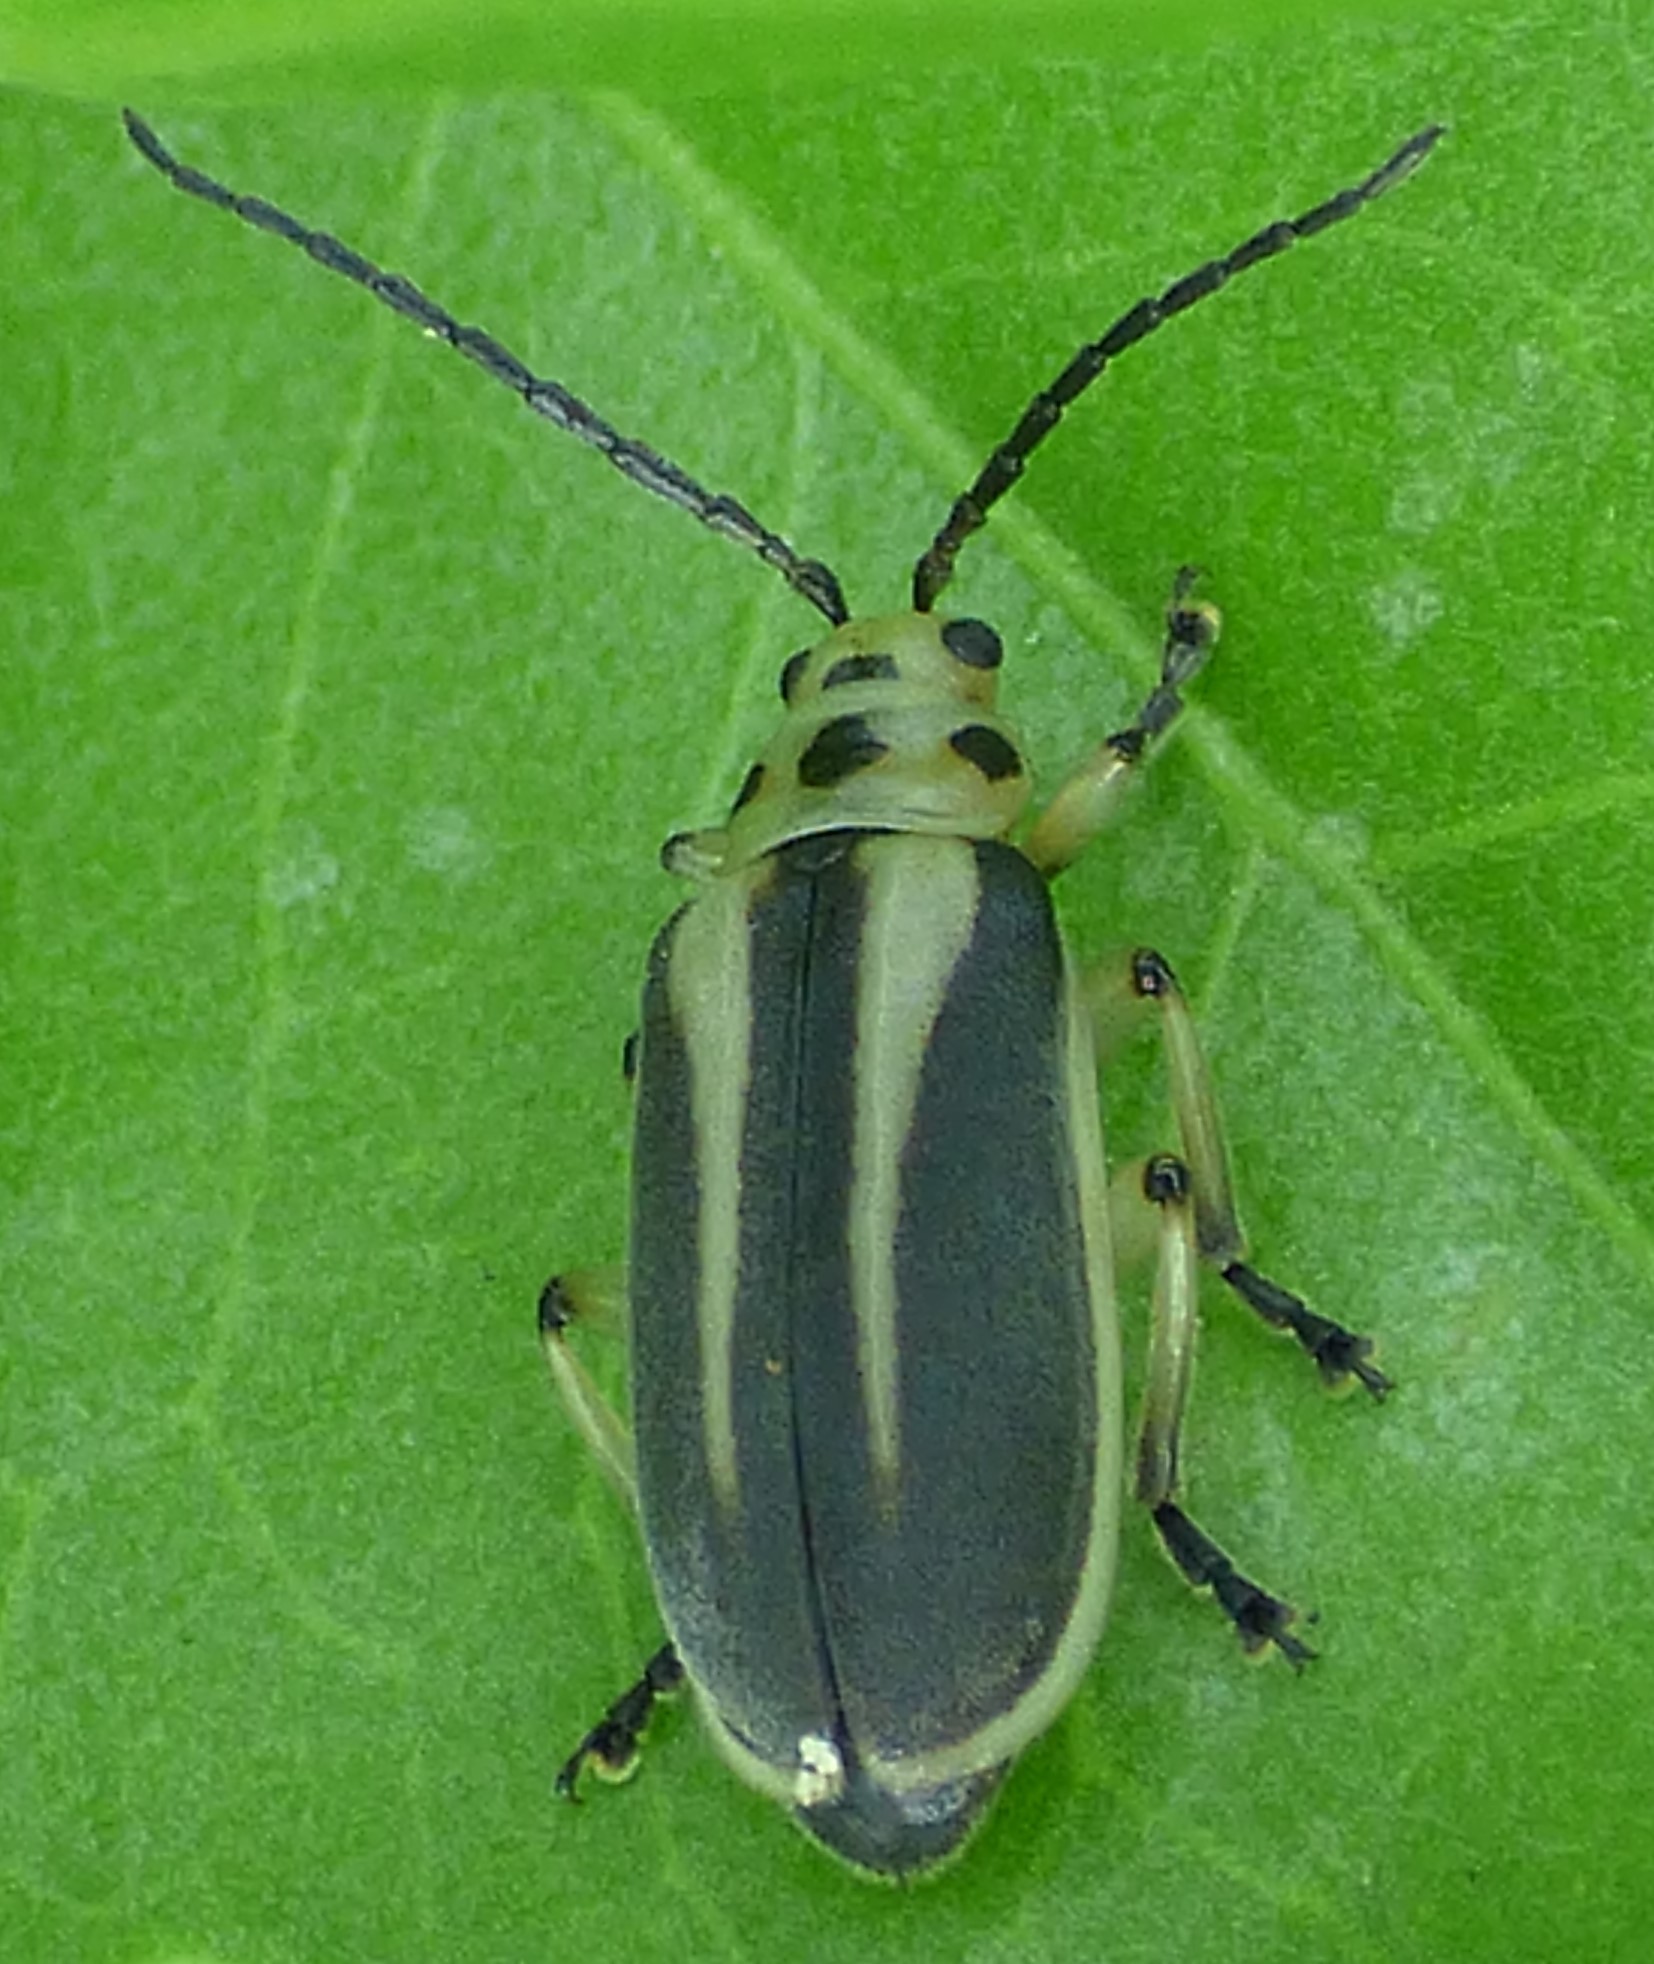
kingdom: Animalia
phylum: Arthropoda
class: Insecta
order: Coleoptera
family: Chrysomelidae
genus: Trirhabda
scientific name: Trirhabda bacharidis
